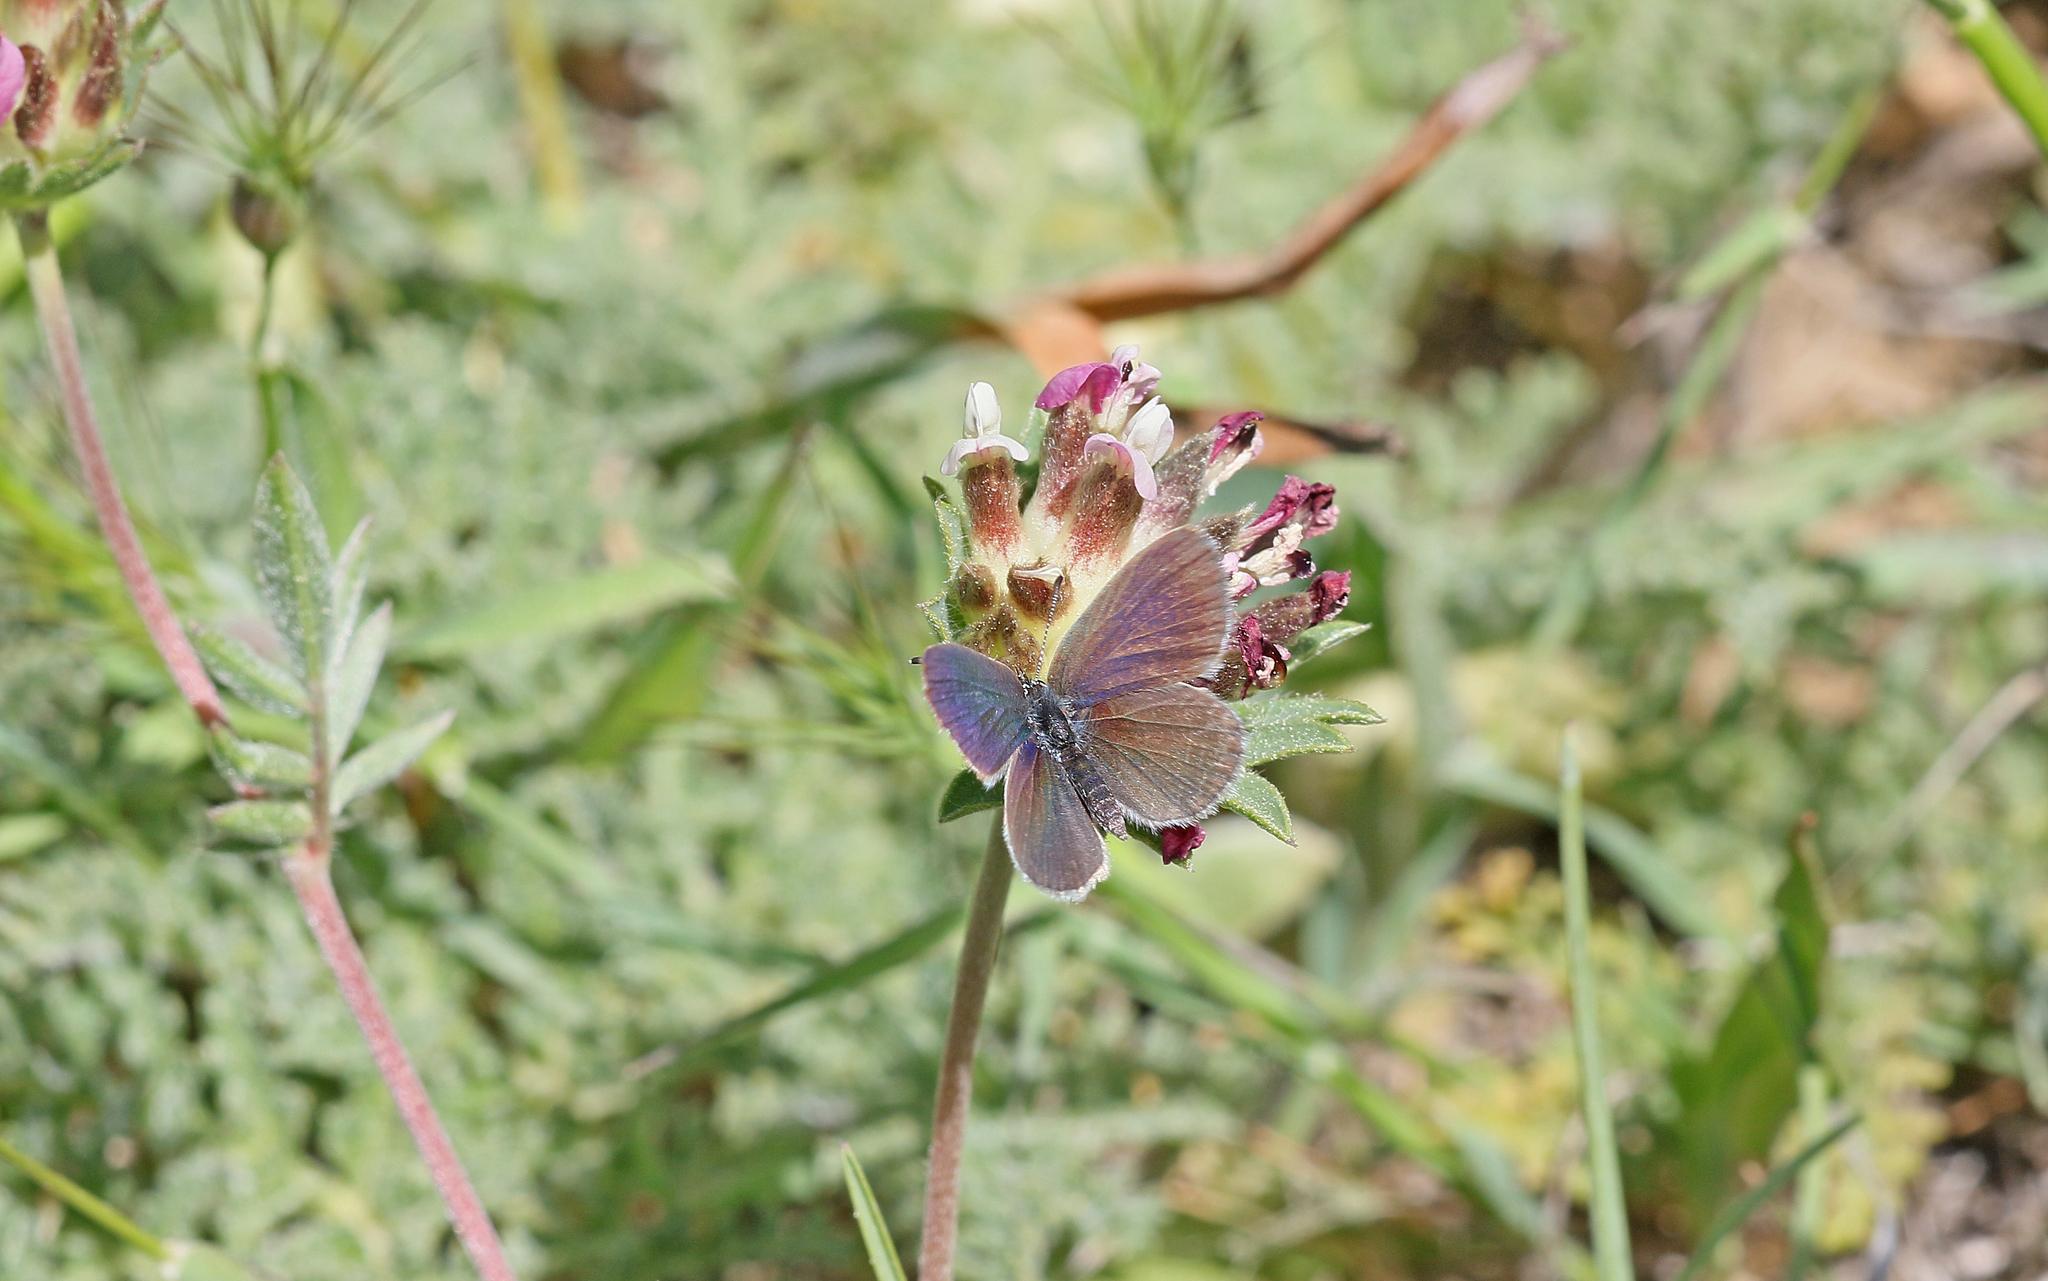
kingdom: Animalia
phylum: Arthropoda
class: Insecta
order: Lepidoptera
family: Lycaenidae
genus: Cupido
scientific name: Cupido lorquinii
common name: Lorquin’s blue
